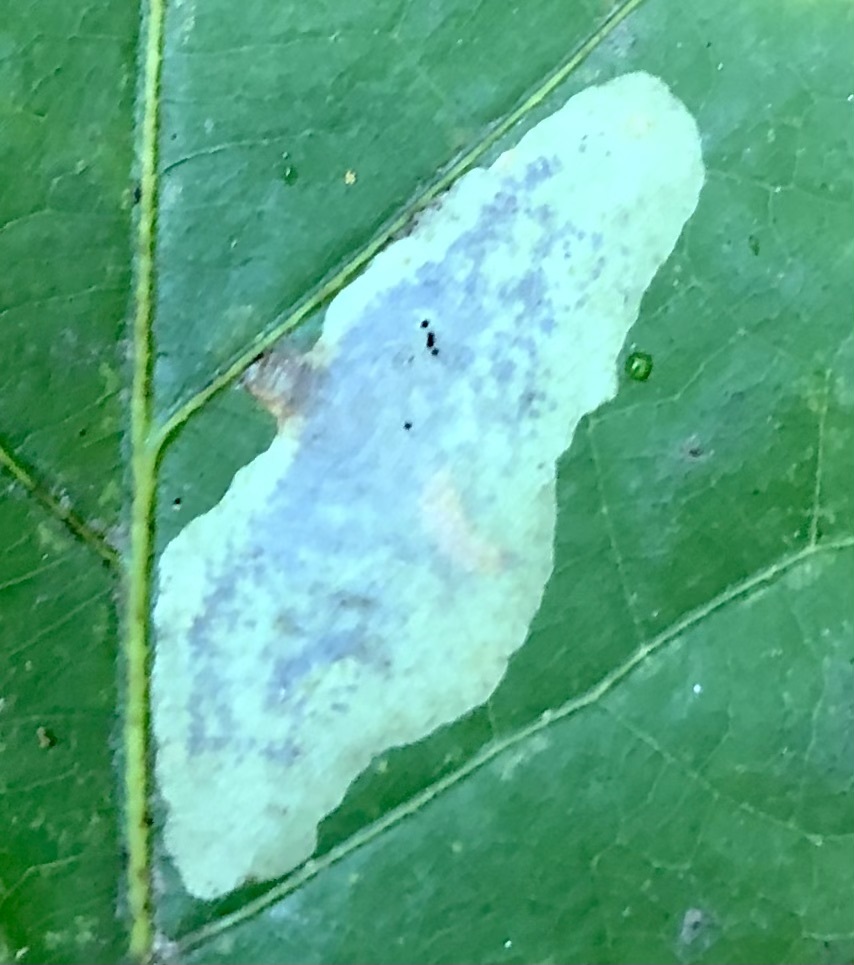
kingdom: Animalia
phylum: Arthropoda
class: Insecta
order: Lepidoptera
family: Gracillariidae
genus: Cameraria
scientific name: Cameraria hamadryadella
